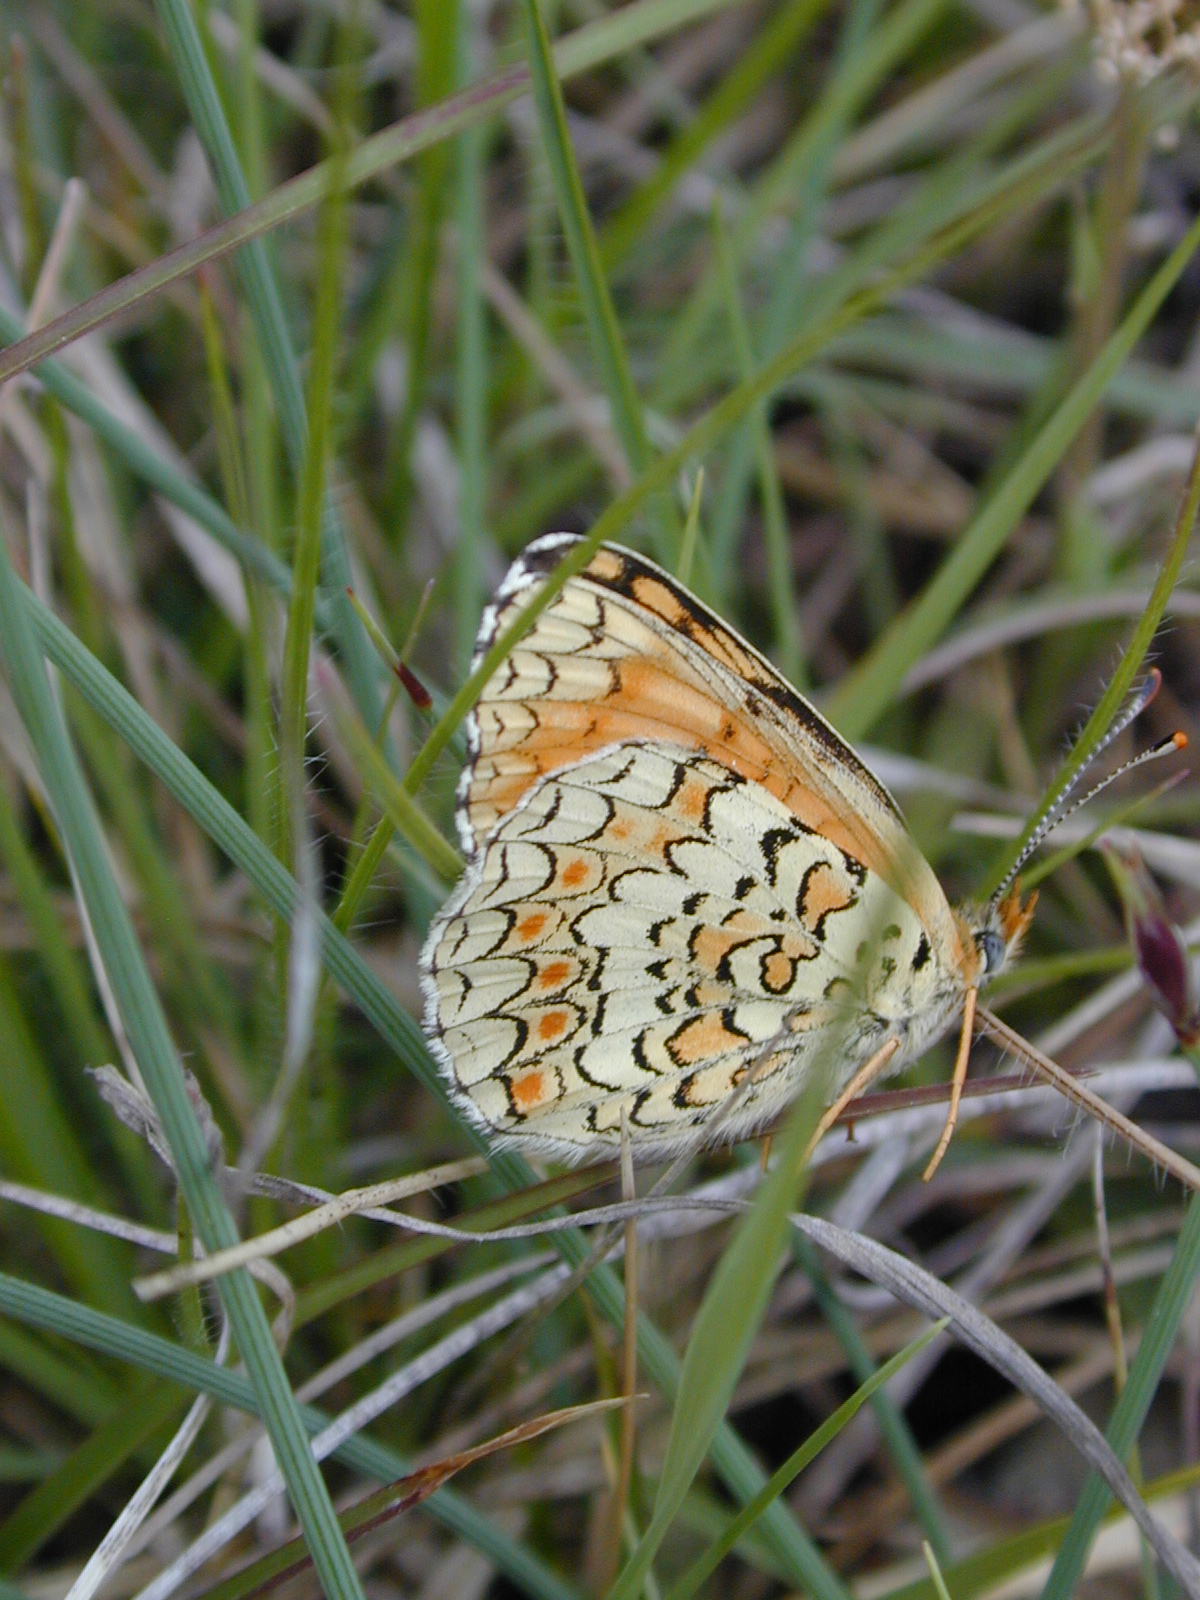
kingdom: Animalia
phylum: Arthropoda
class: Insecta
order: Lepidoptera
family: Nymphalidae
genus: Melitaea
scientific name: Melitaea phoebe
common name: Knapweed fritillary
